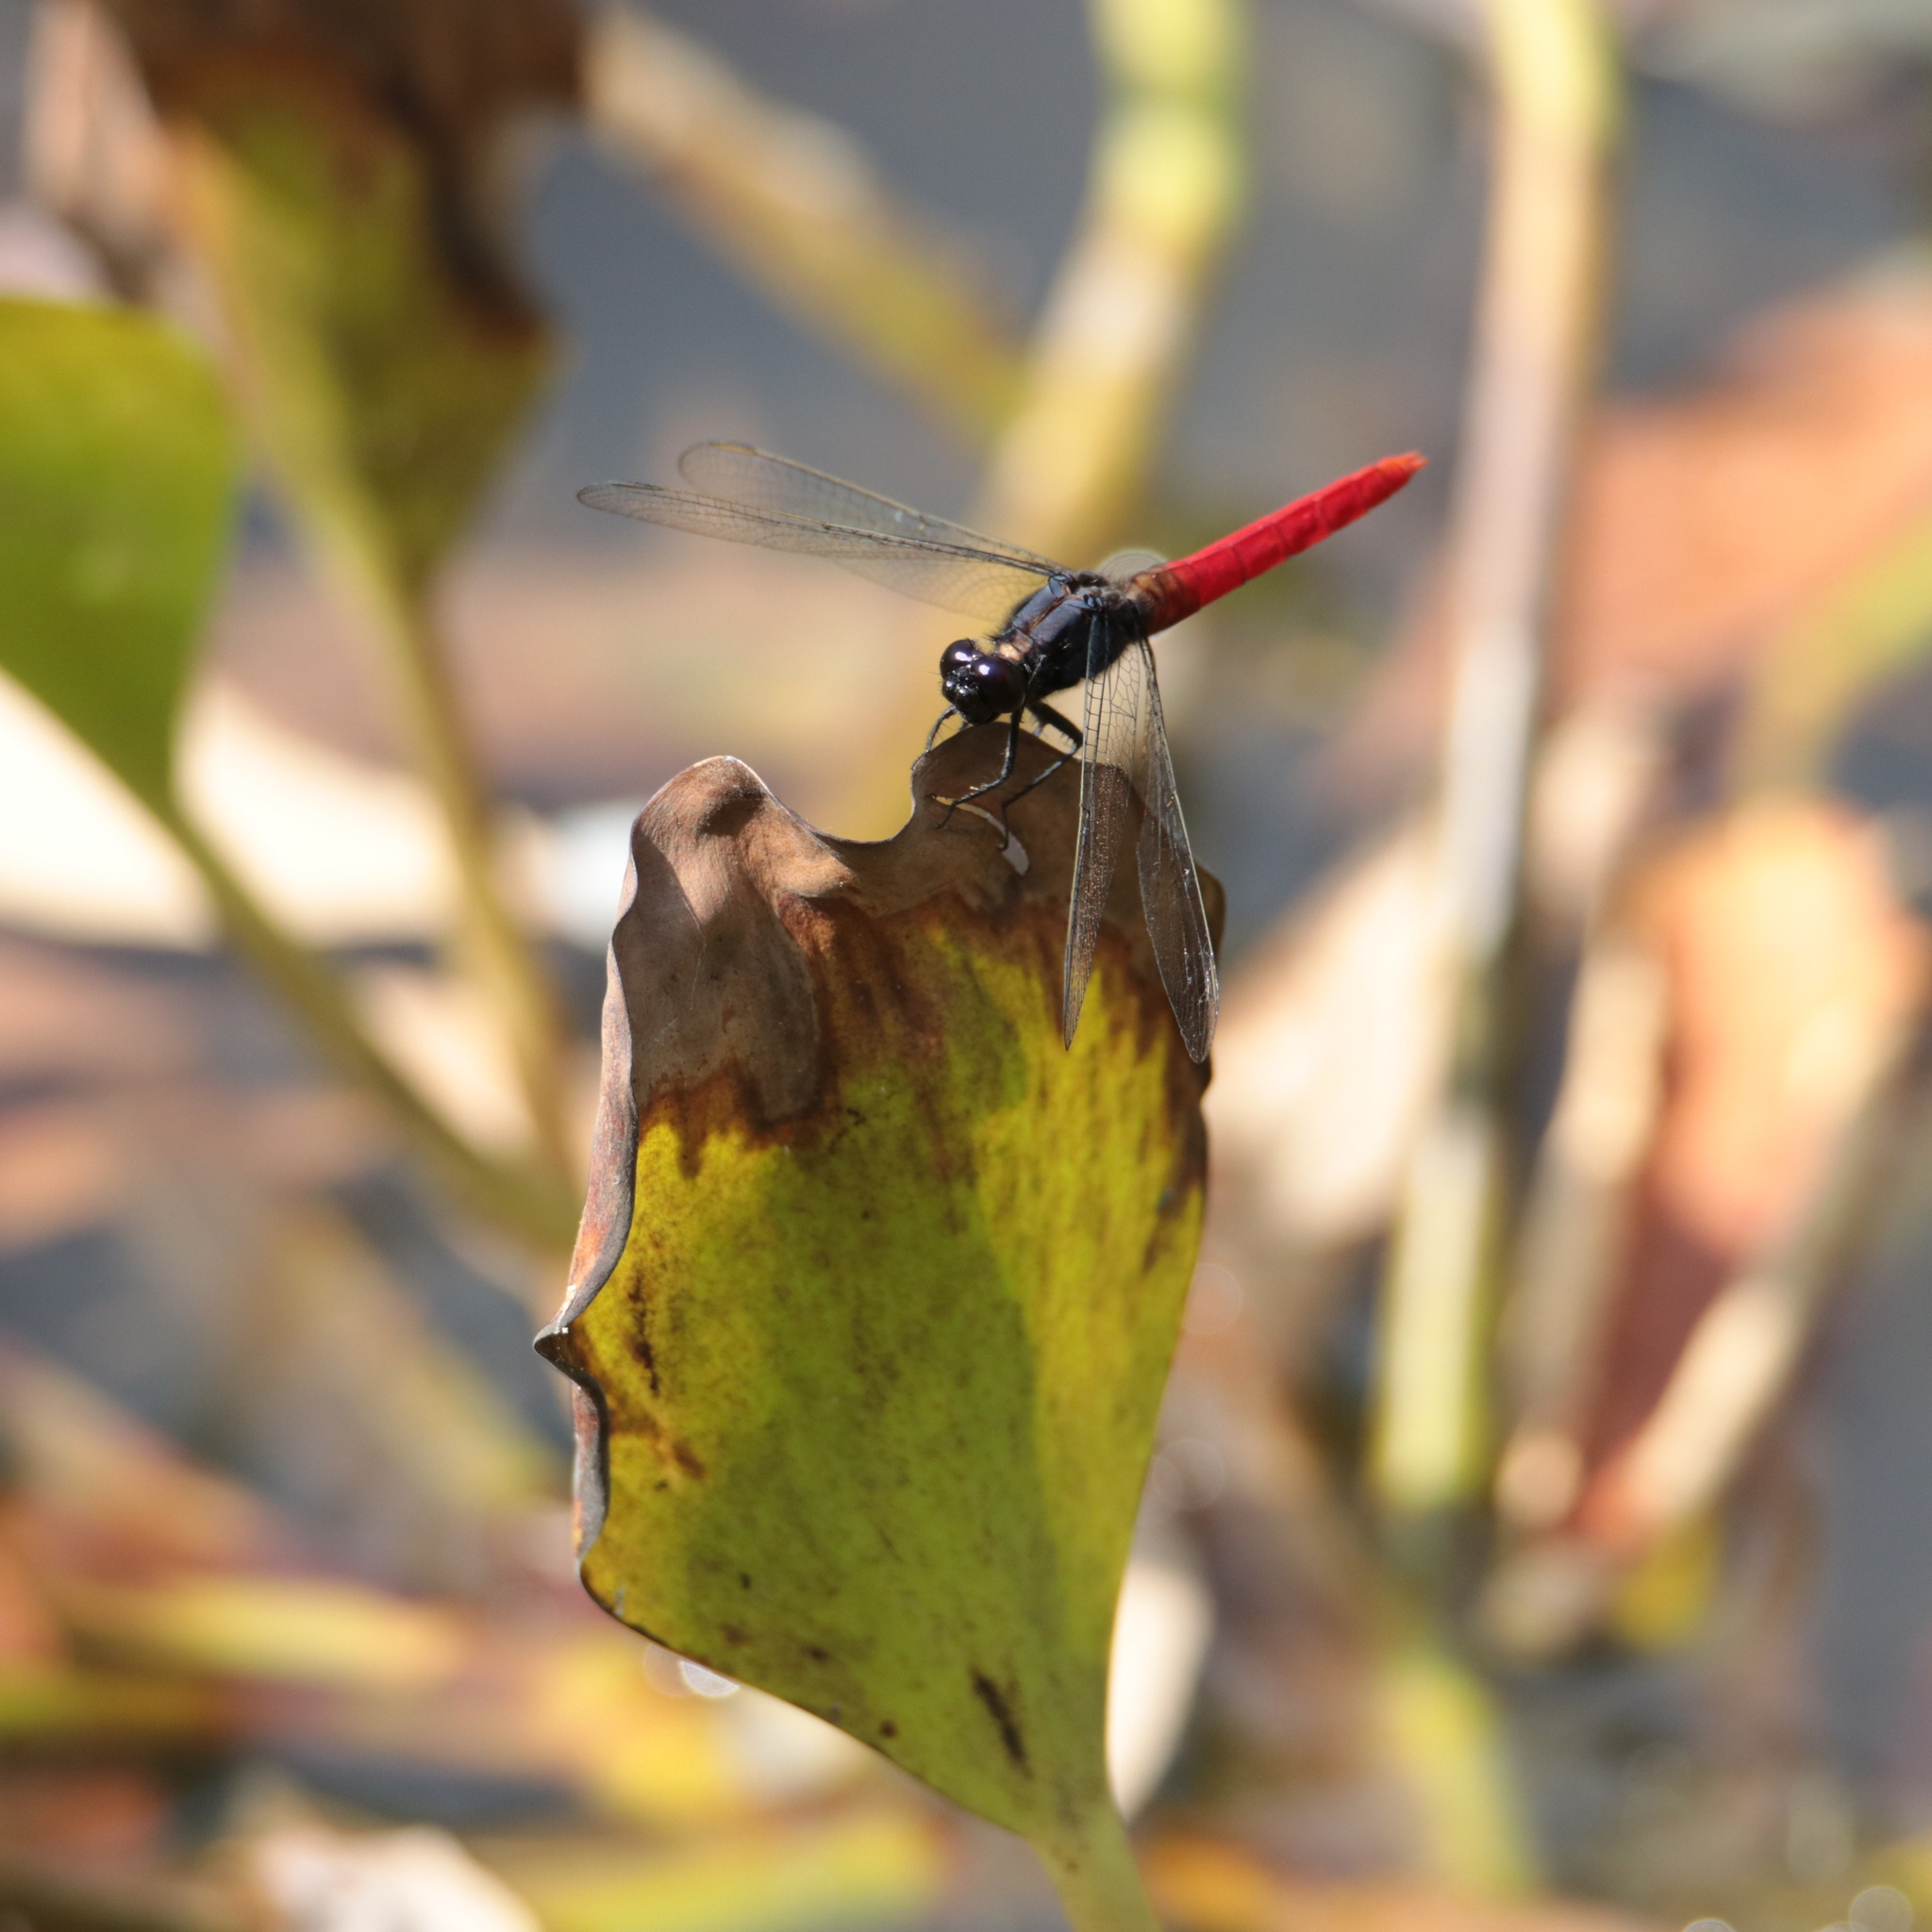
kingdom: Animalia
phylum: Arthropoda
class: Insecta
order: Odonata
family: Libellulidae
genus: Erythemis
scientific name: Erythemis peruviana
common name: Flame-tailed pondhawk
